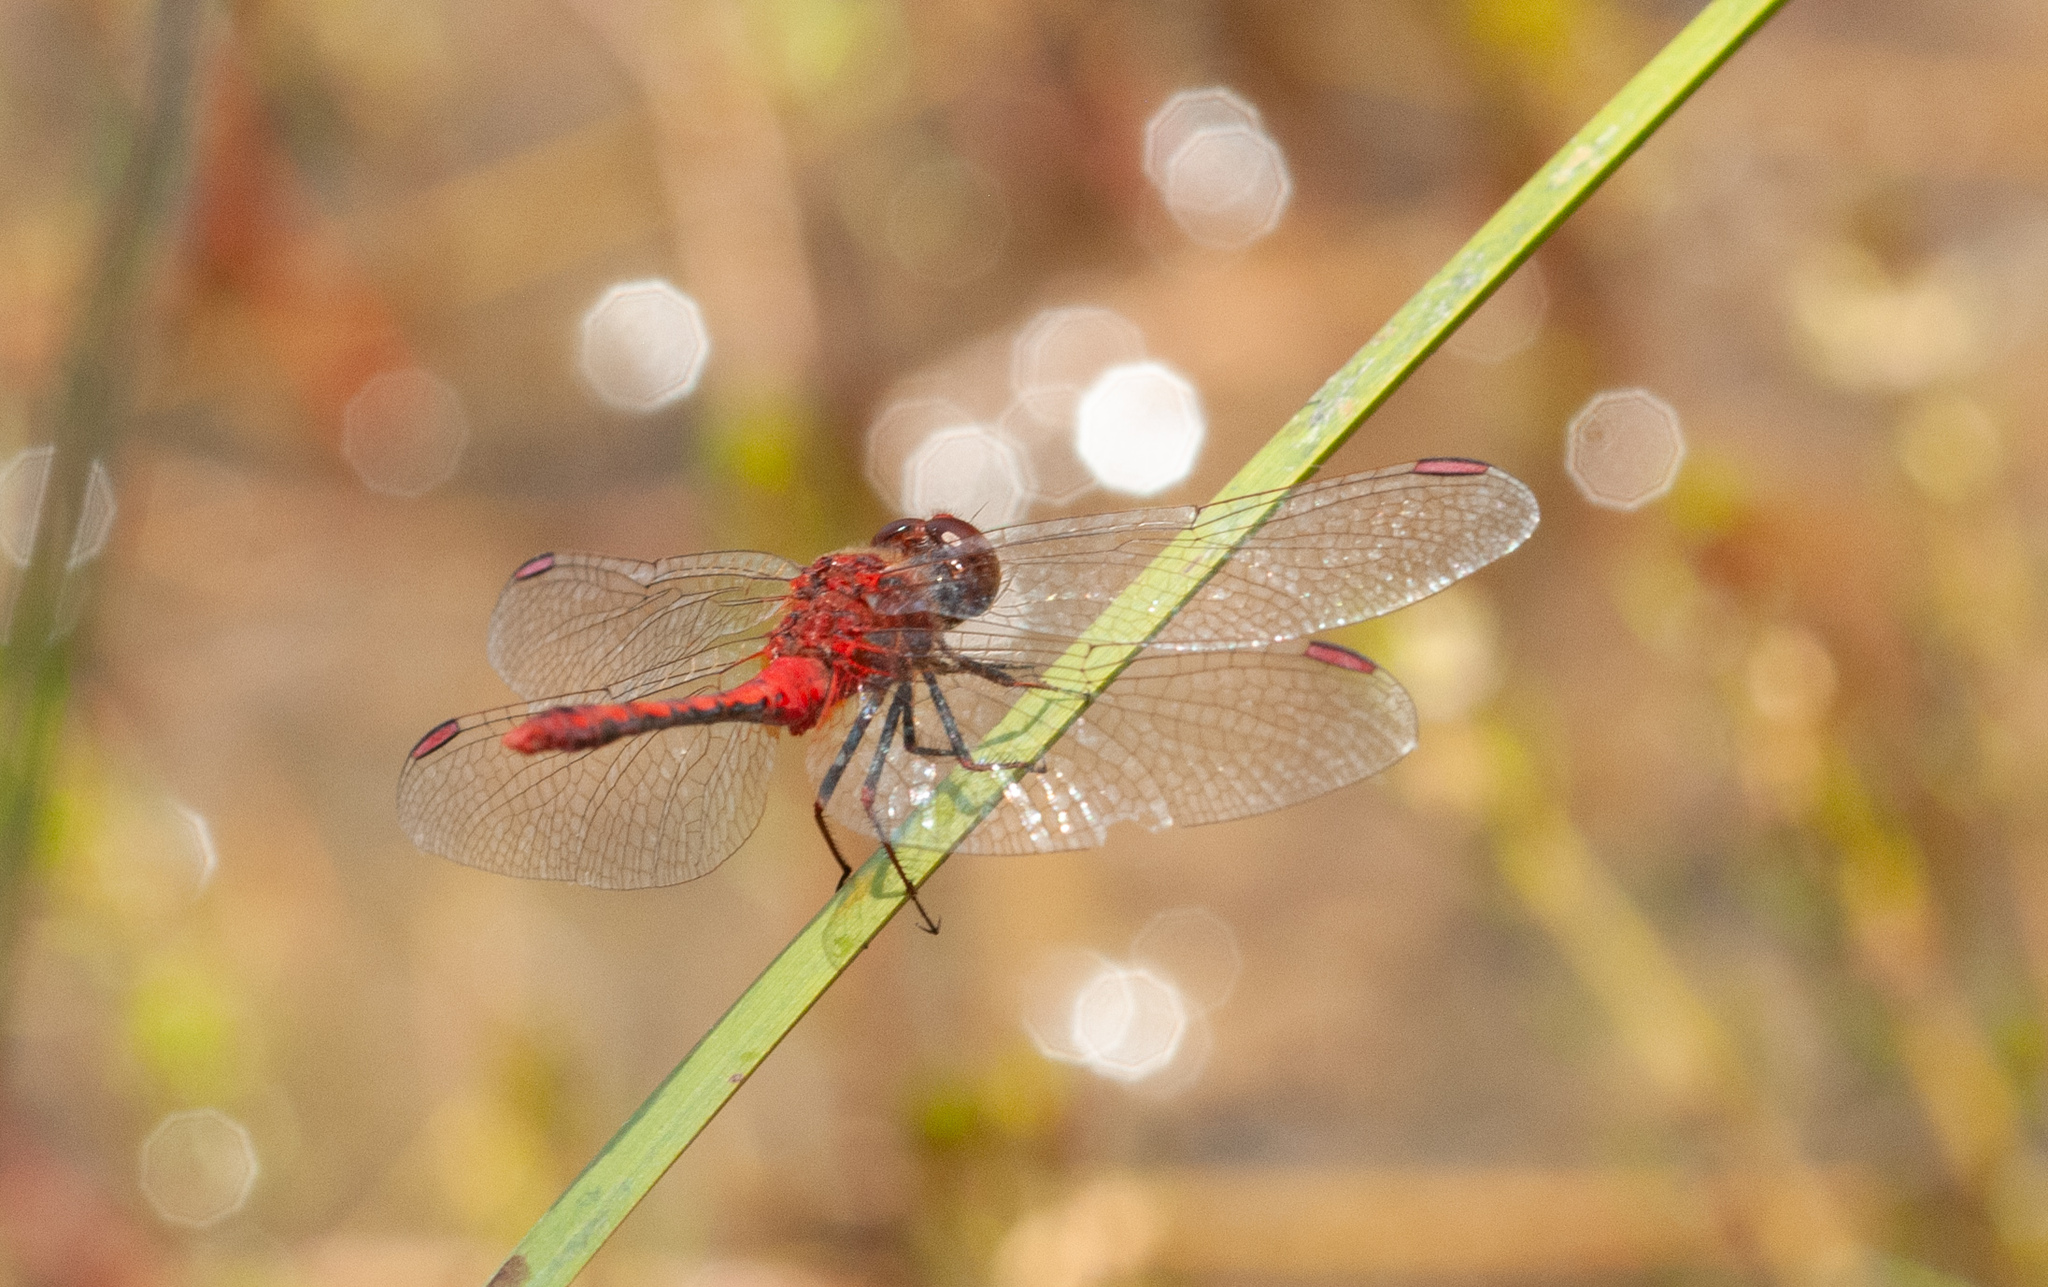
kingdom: Animalia
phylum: Arthropoda
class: Insecta
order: Odonata
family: Libellulidae
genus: Diplacodes
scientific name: Diplacodes bipunctata
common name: Red percher dragonfly
